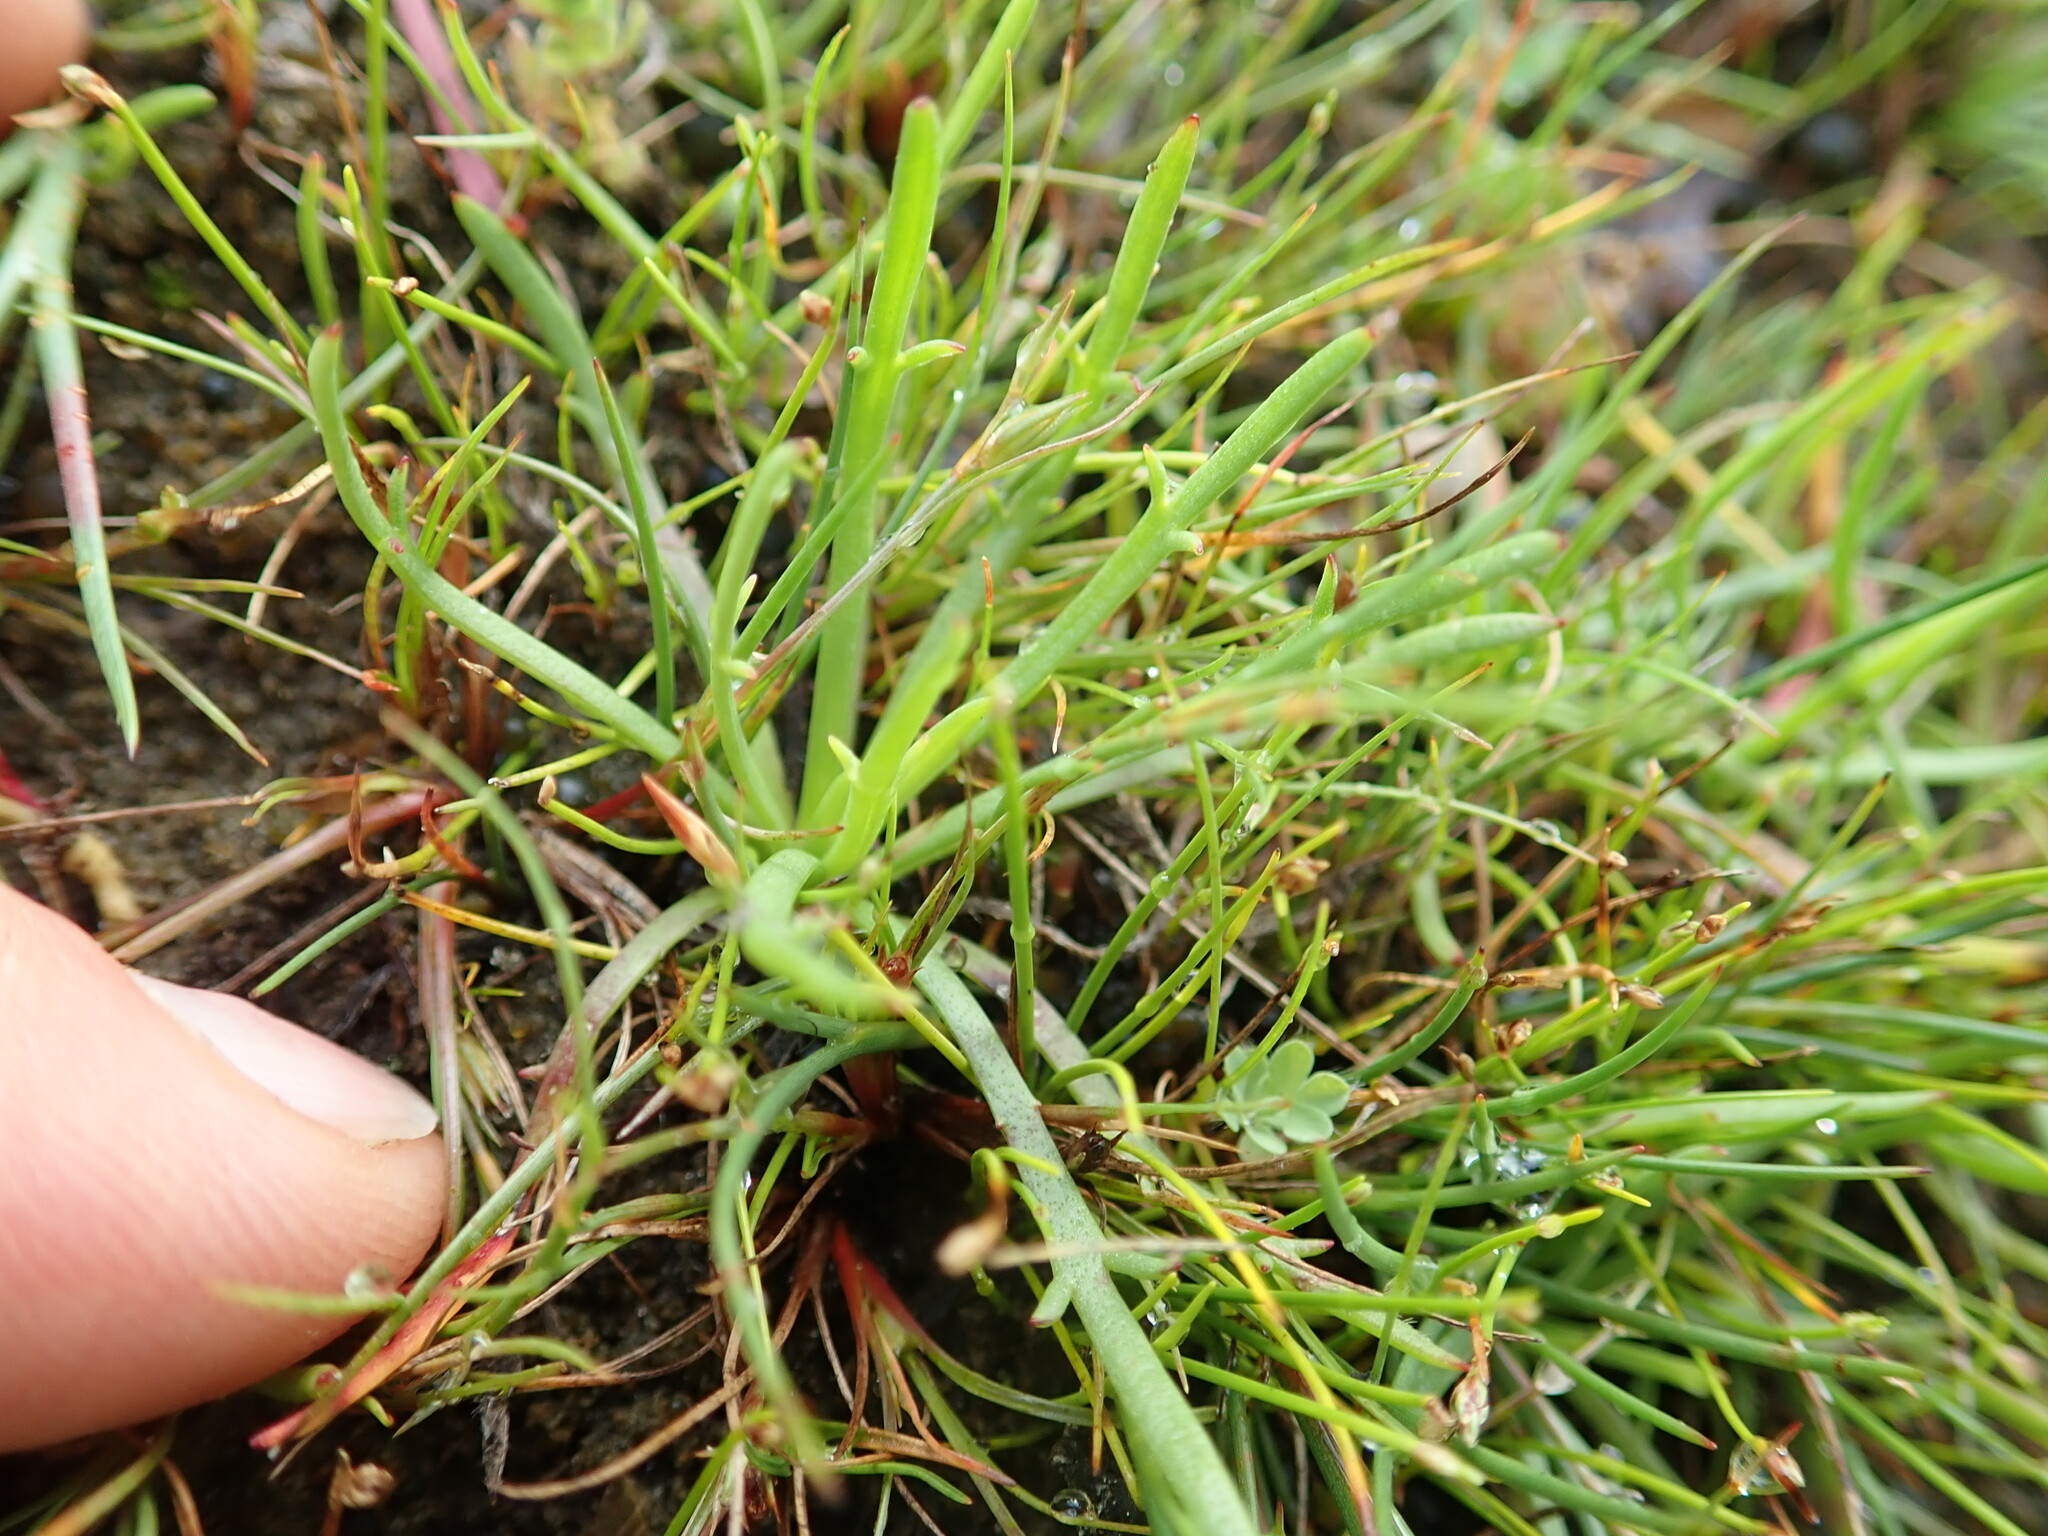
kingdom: Plantae
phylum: Tracheophyta
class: Magnoliopsida
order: Lamiales
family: Plantaginaceae
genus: Plantago
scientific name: Plantago coronopus
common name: Buck's-horn plantain
